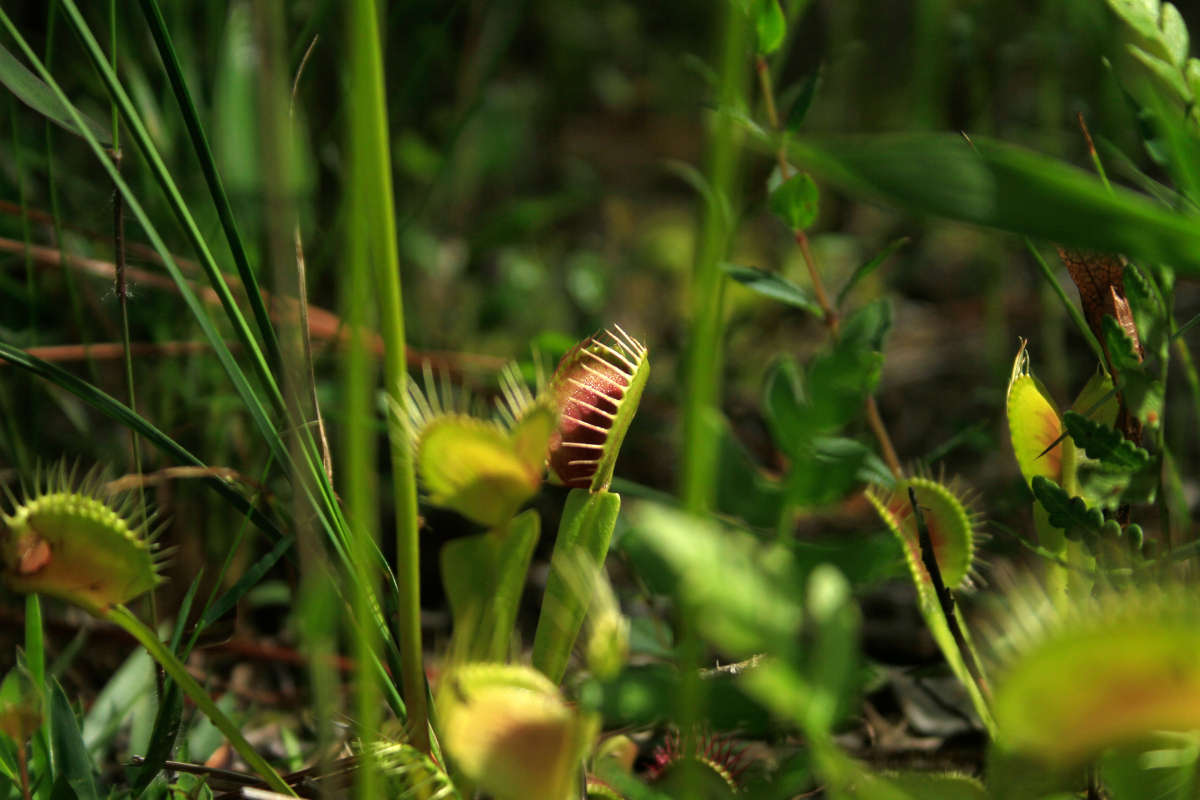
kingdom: Plantae
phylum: Tracheophyta
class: Magnoliopsida
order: Caryophyllales
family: Droseraceae
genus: Dionaea
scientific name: Dionaea muscipula
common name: Venus flytrap
